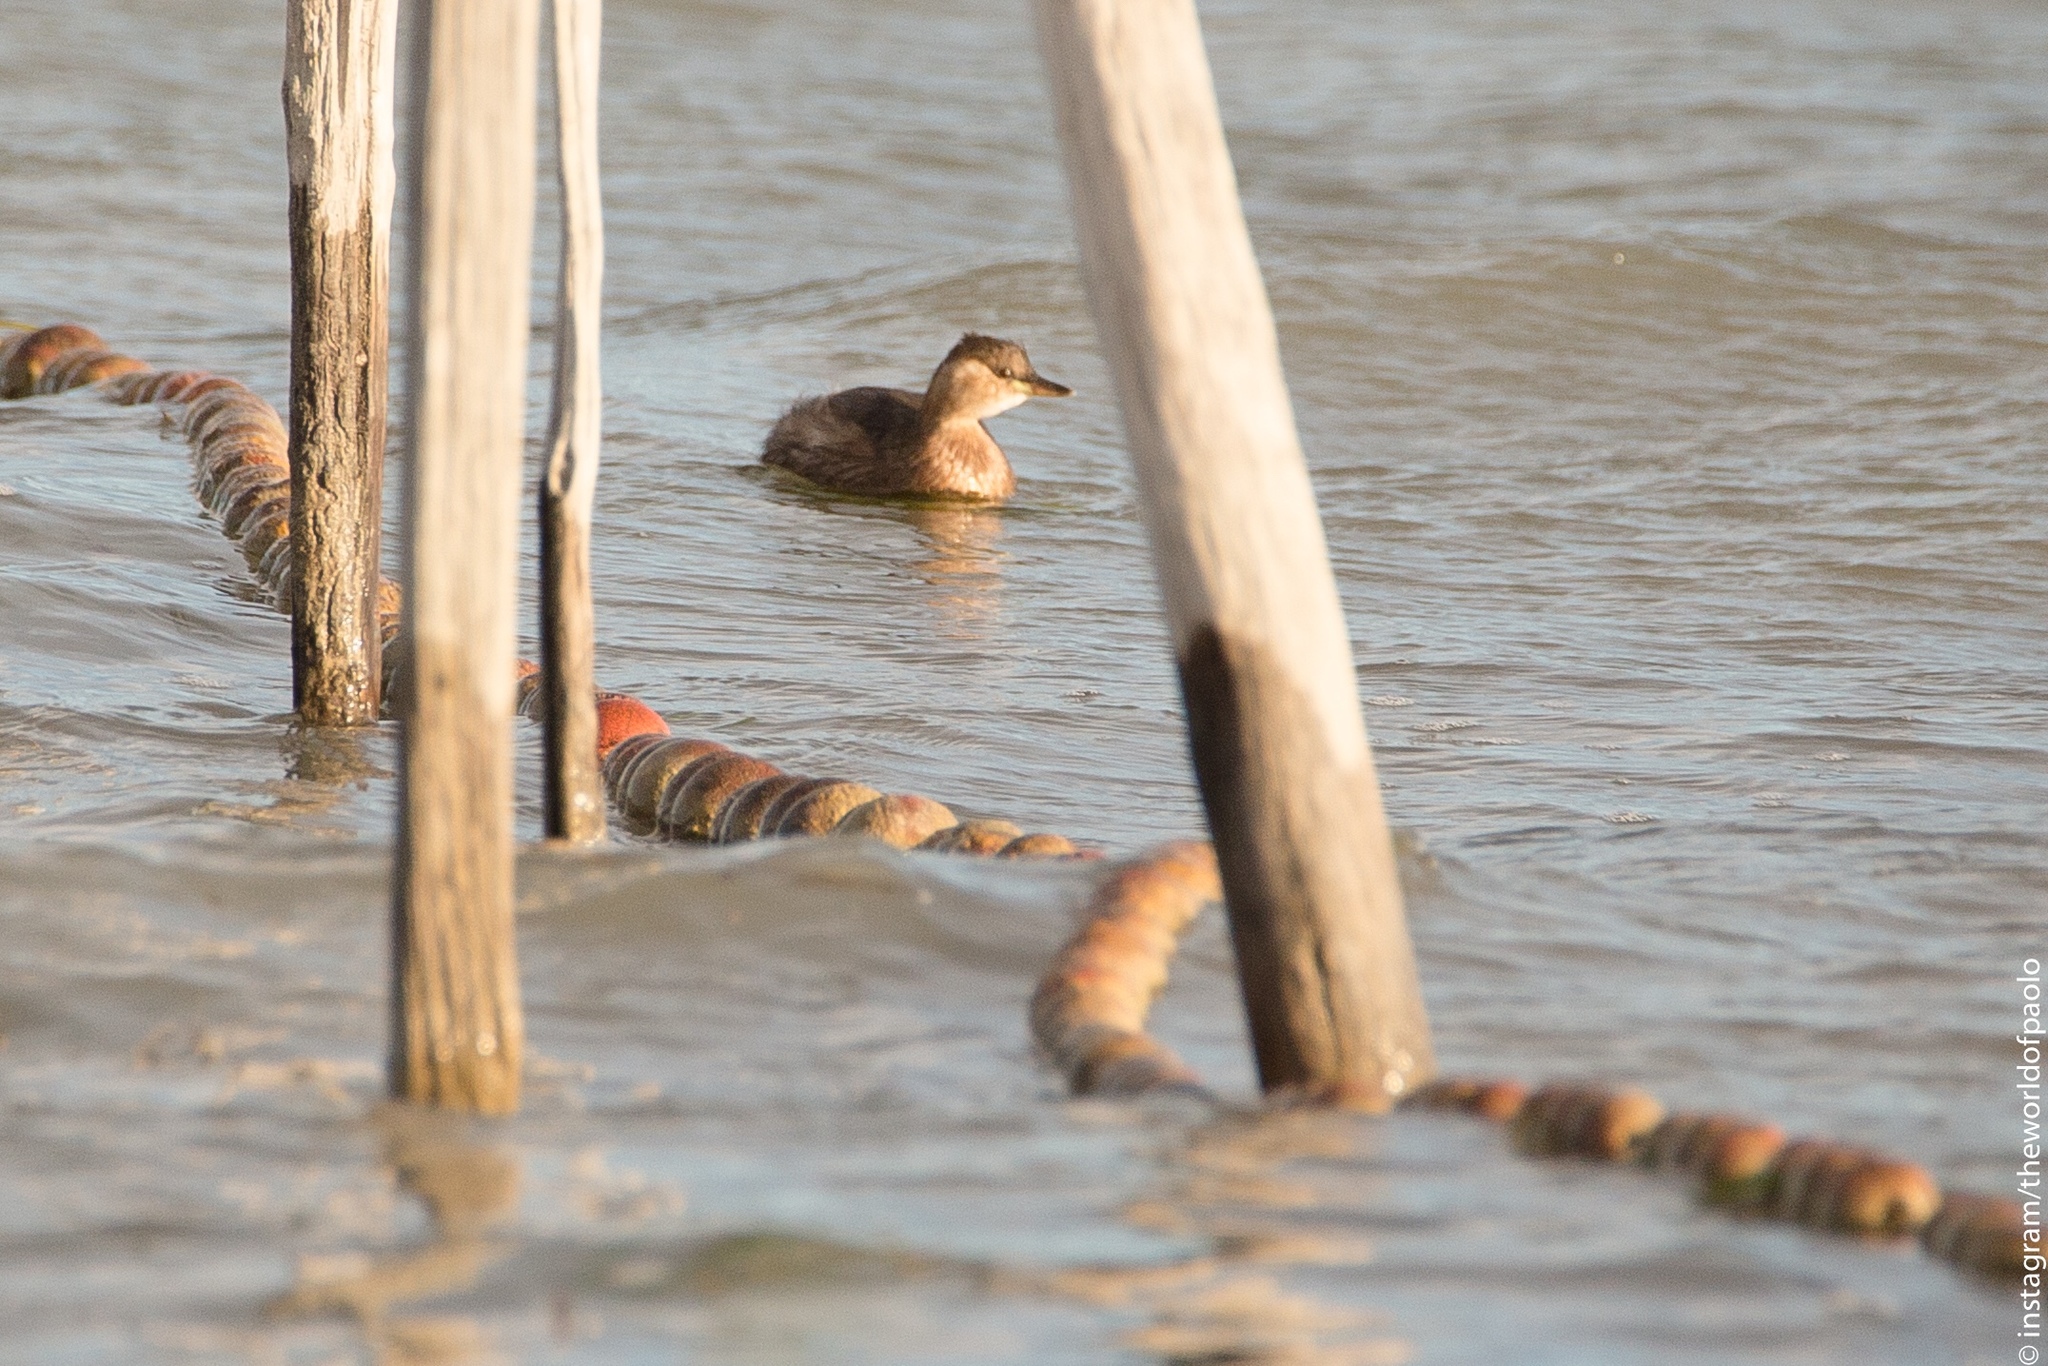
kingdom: Animalia
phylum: Chordata
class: Aves
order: Podicipediformes
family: Podicipedidae
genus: Tachybaptus
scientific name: Tachybaptus ruficollis
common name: Little grebe
